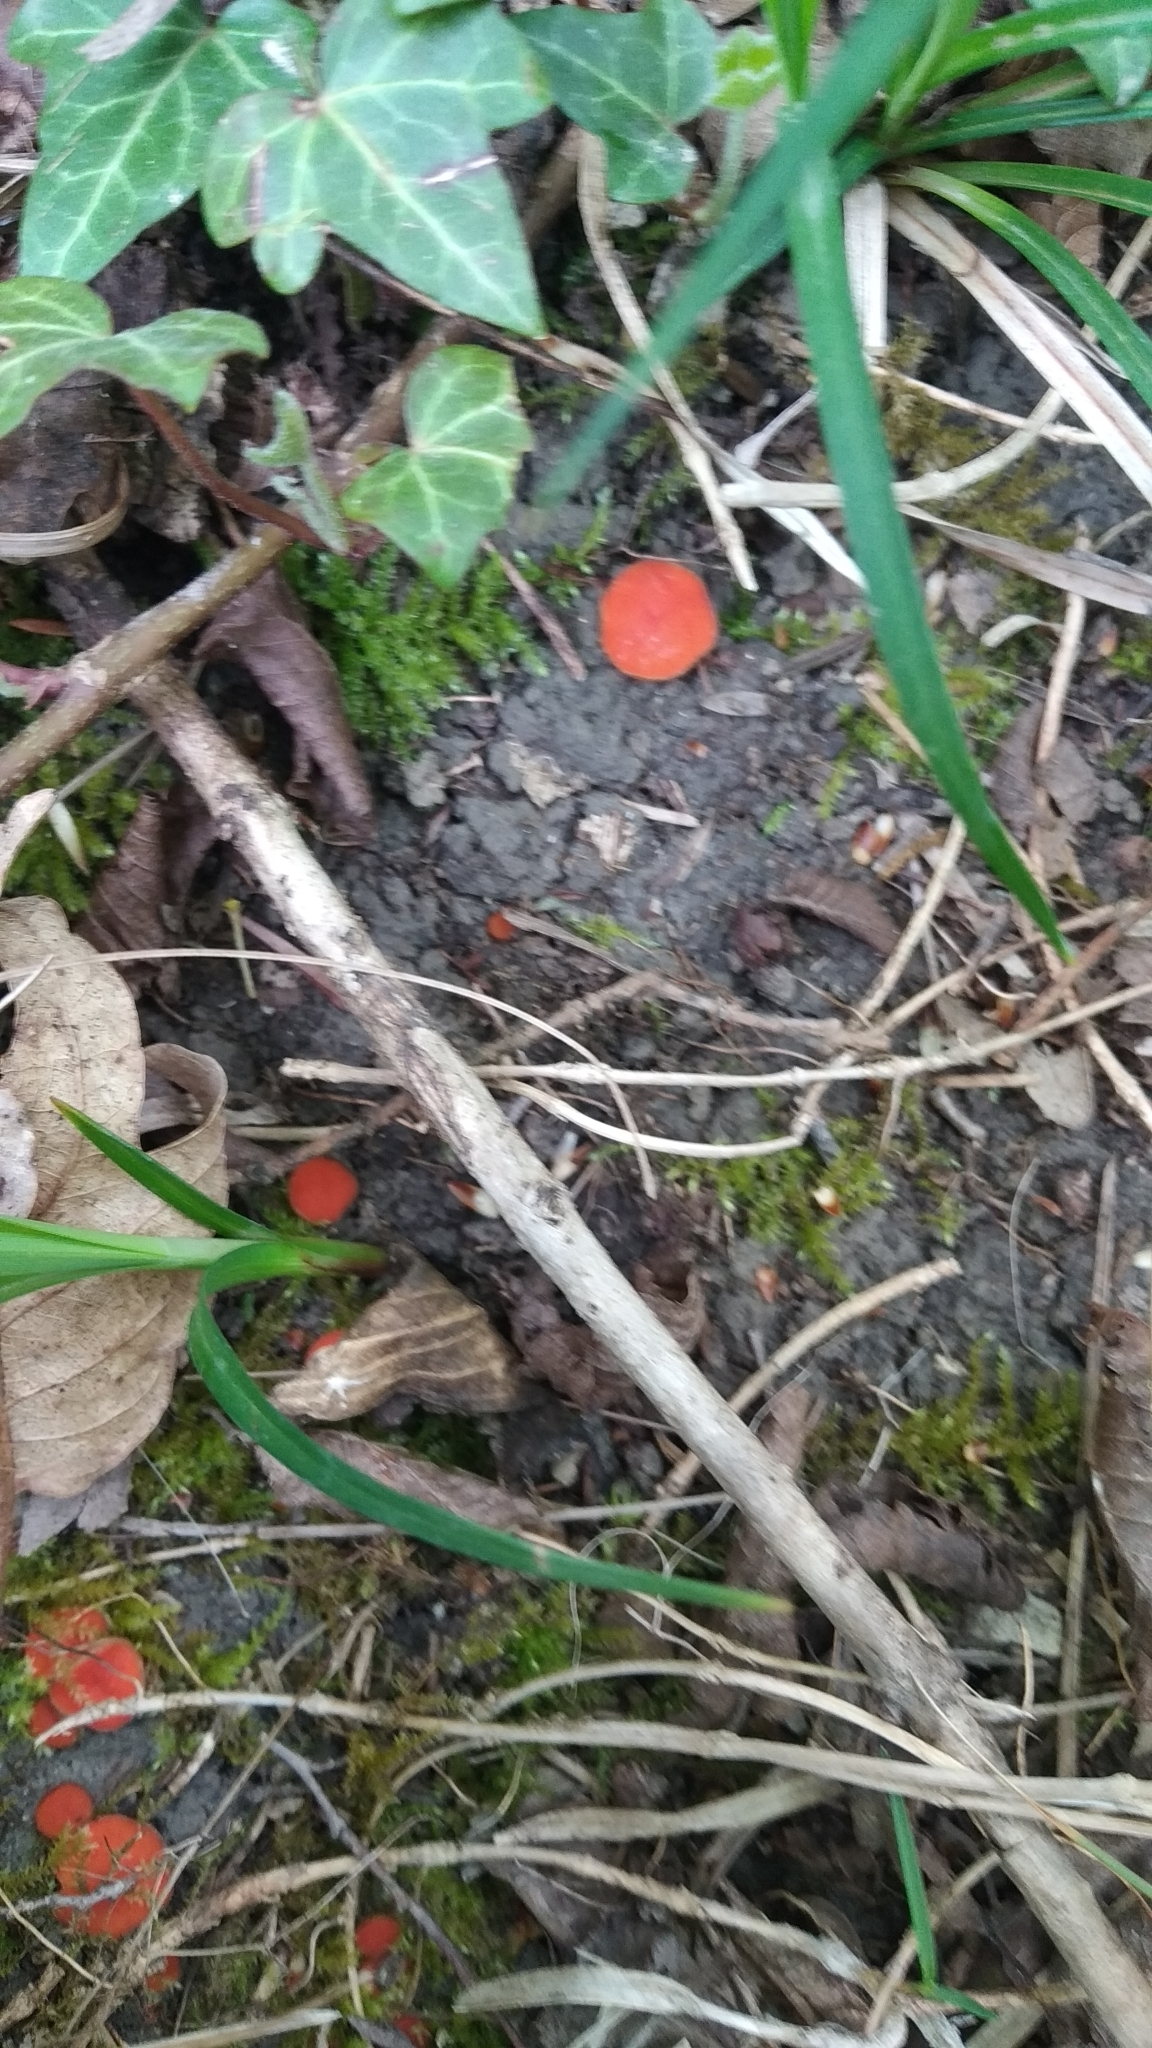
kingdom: Fungi
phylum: Ascomycota
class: Pezizomycetes
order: Pezizales
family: Pyronemataceae
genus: Scutellinia
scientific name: Scutellinia
